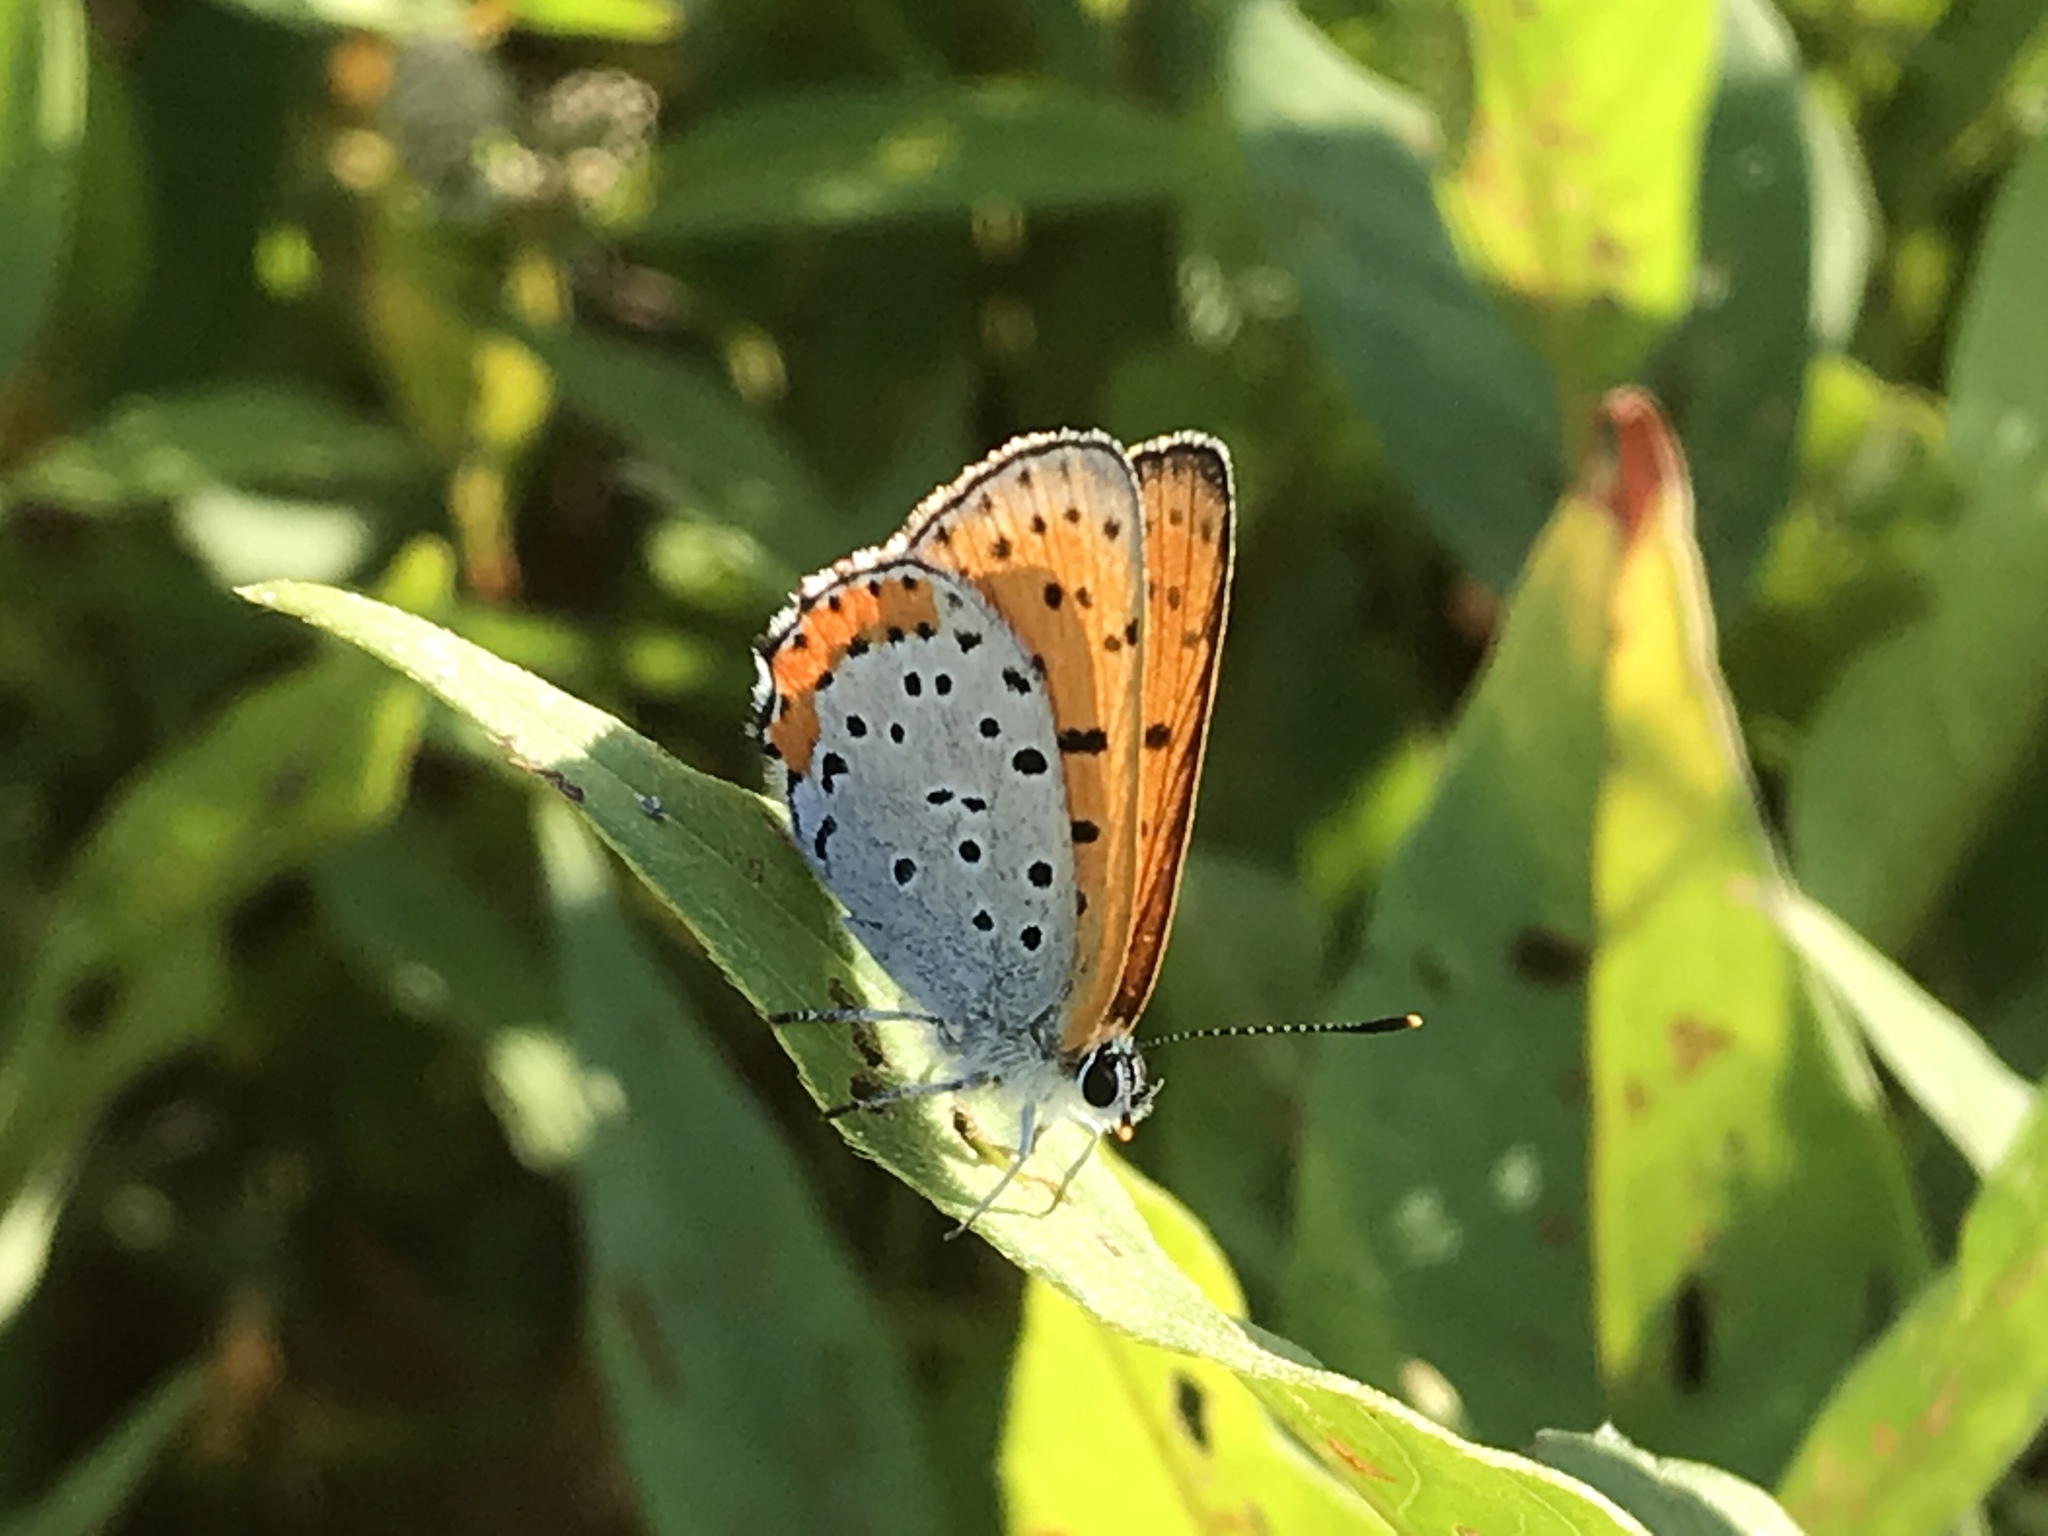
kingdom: Animalia
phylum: Arthropoda
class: Insecta
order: Lepidoptera
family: Lycaenidae
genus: Tharsalea
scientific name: Tharsalea hyllus
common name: Bronze copper
